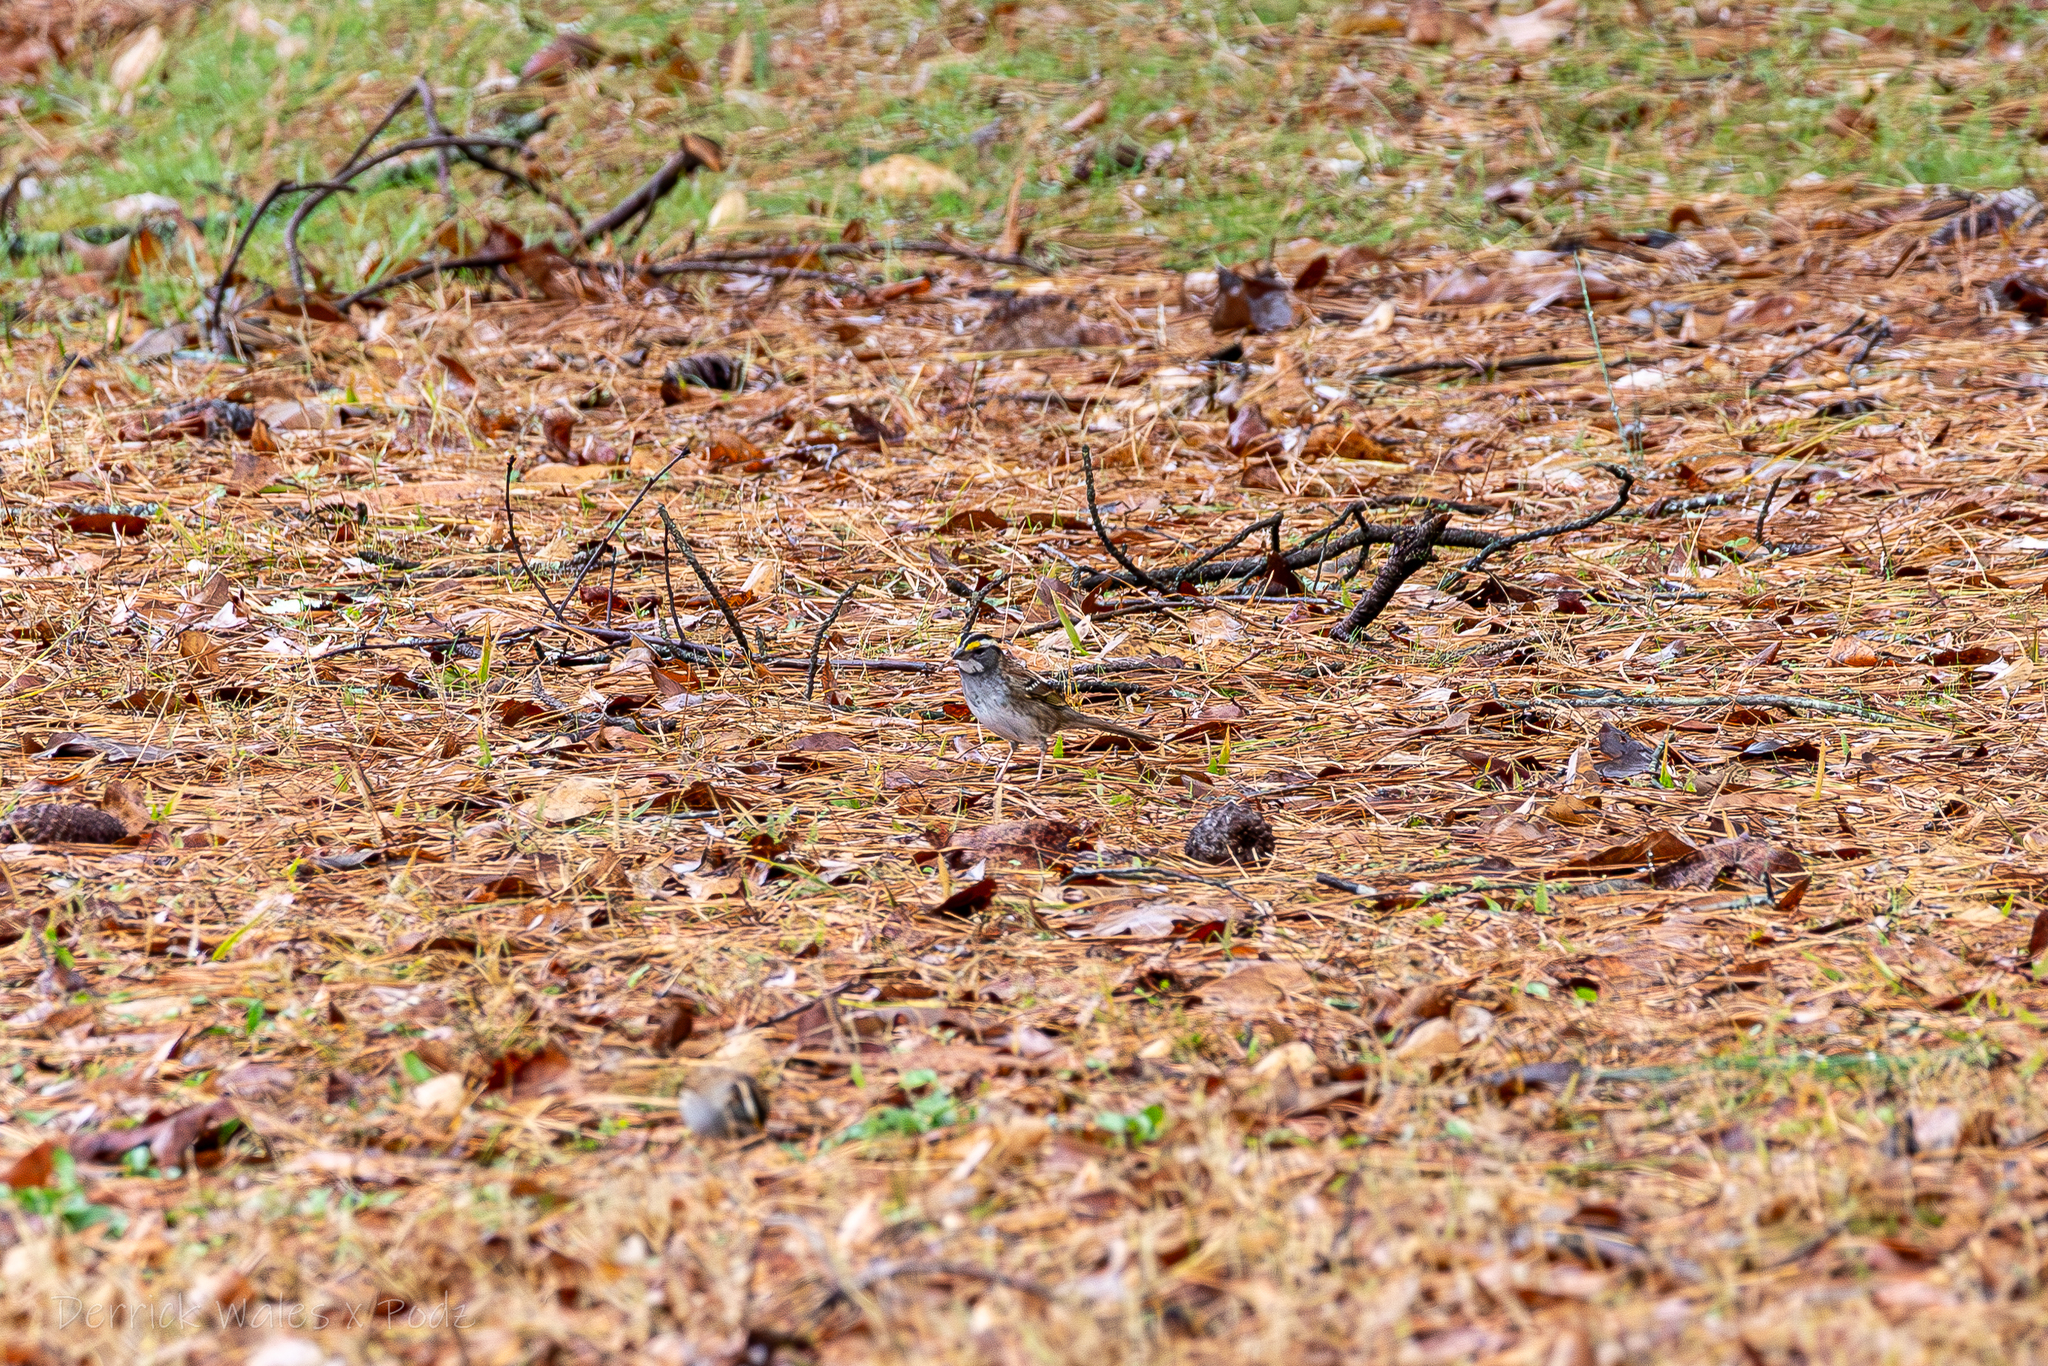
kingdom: Animalia
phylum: Chordata
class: Aves
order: Passeriformes
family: Passerellidae
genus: Zonotrichia
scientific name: Zonotrichia albicollis
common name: White-throated sparrow
